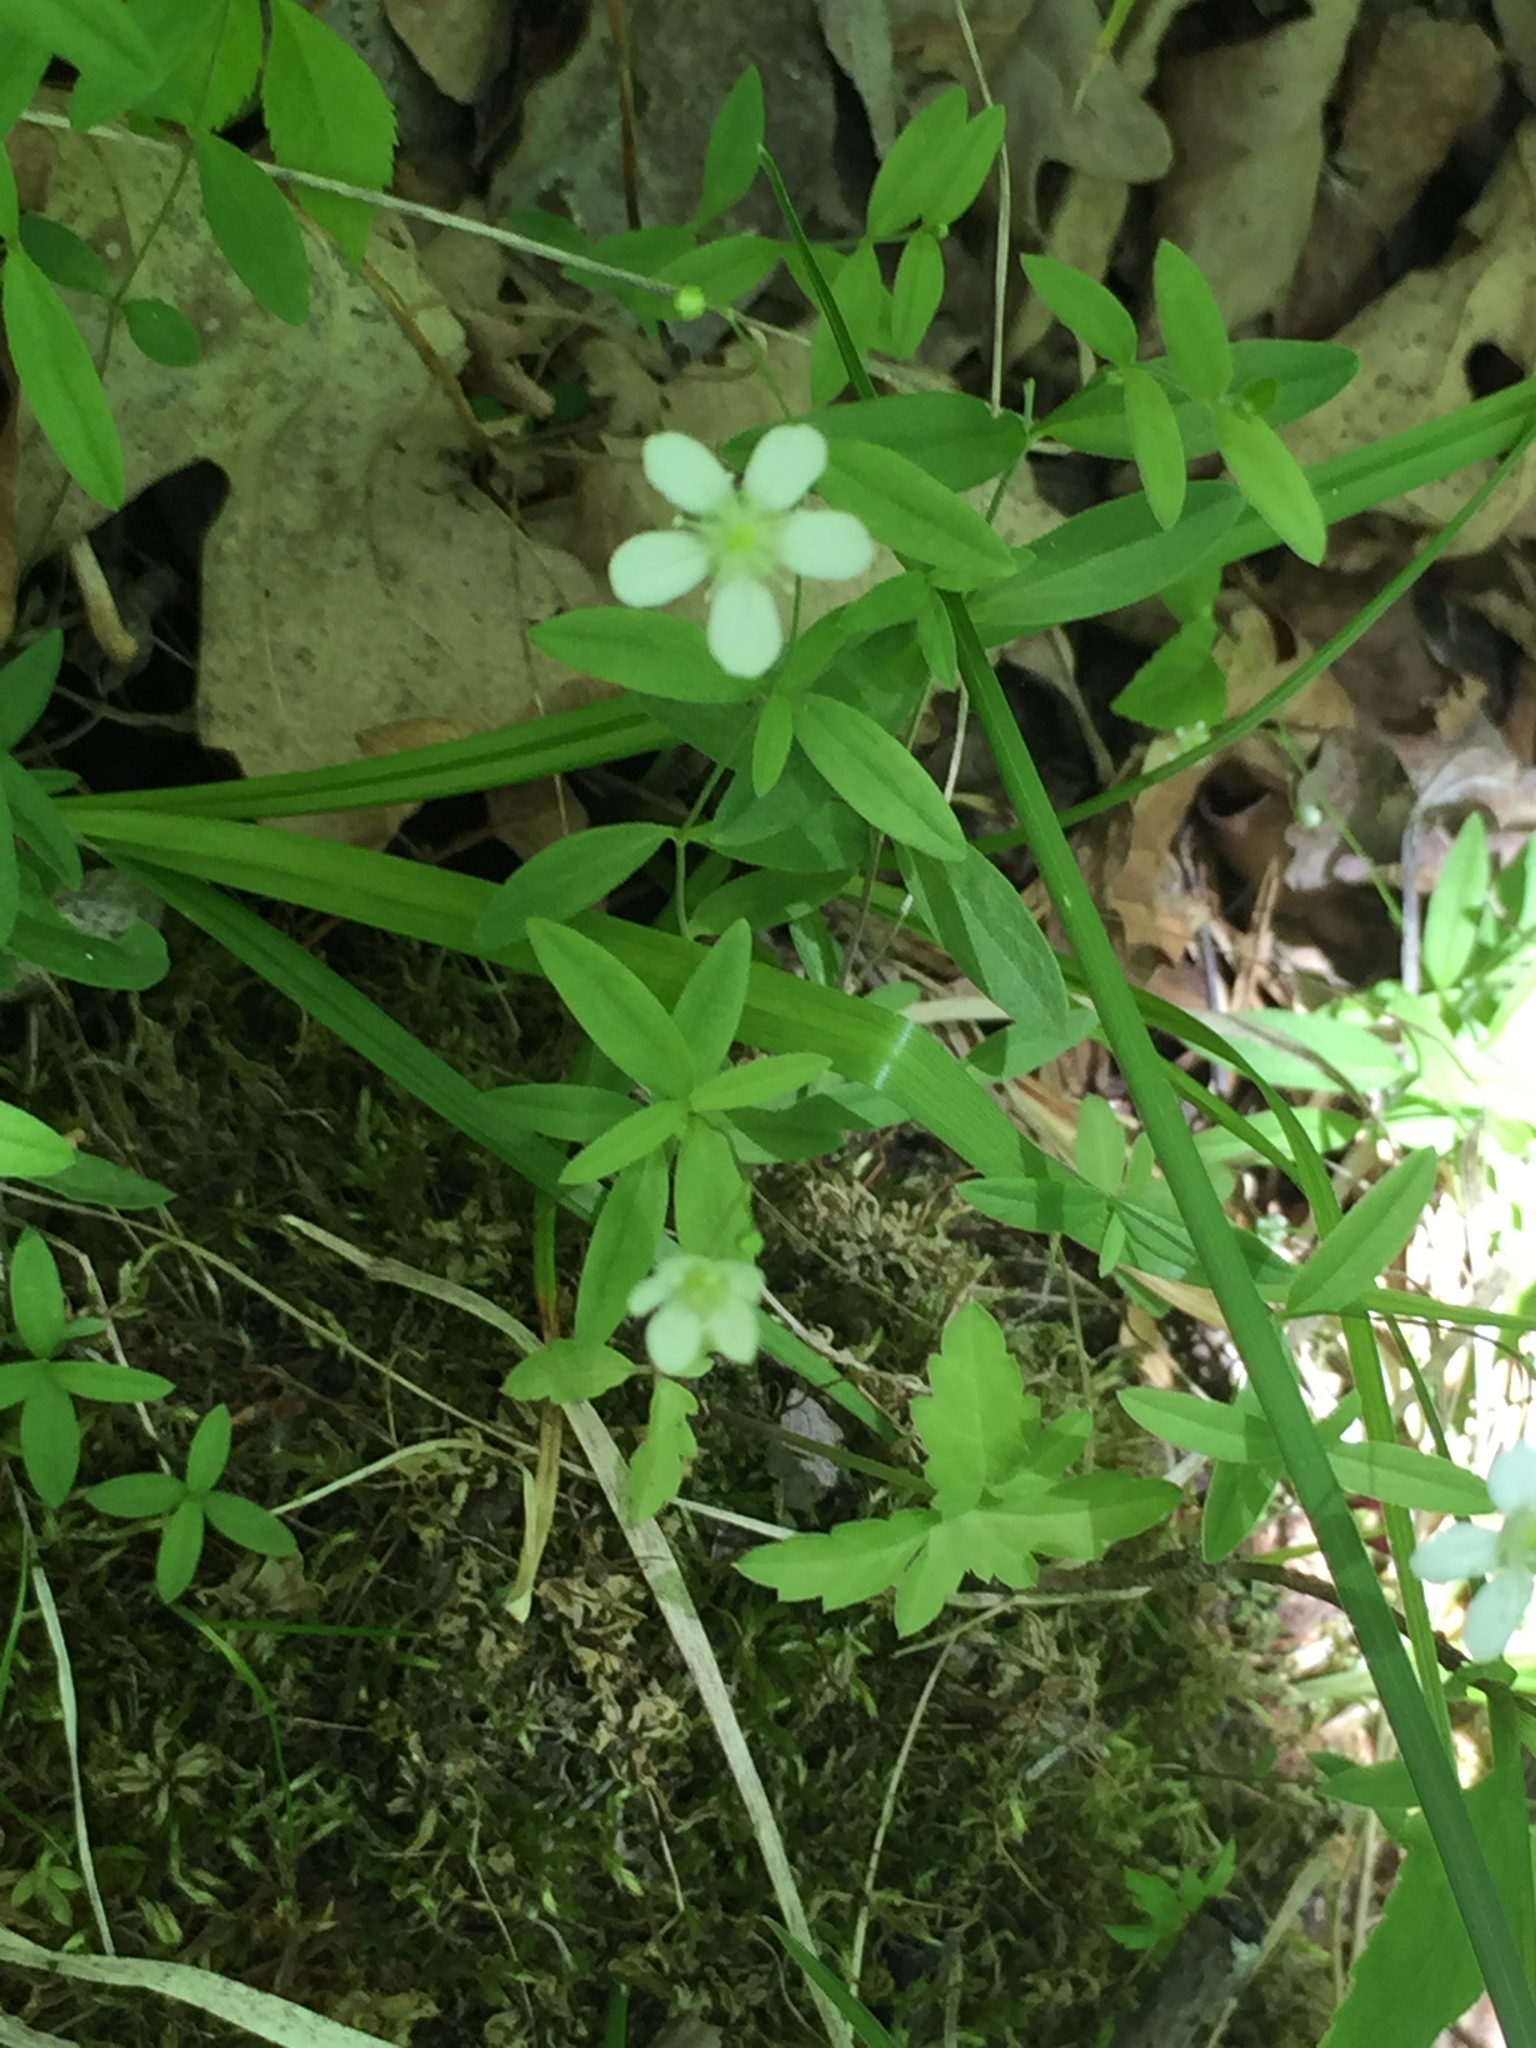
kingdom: Plantae
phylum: Tracheophyta
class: Magnoliopsida
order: Caryophyllales
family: Caryophyllaceae
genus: Moehringia
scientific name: Moehringia lateriflora
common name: Blunt-leaved sandwort
